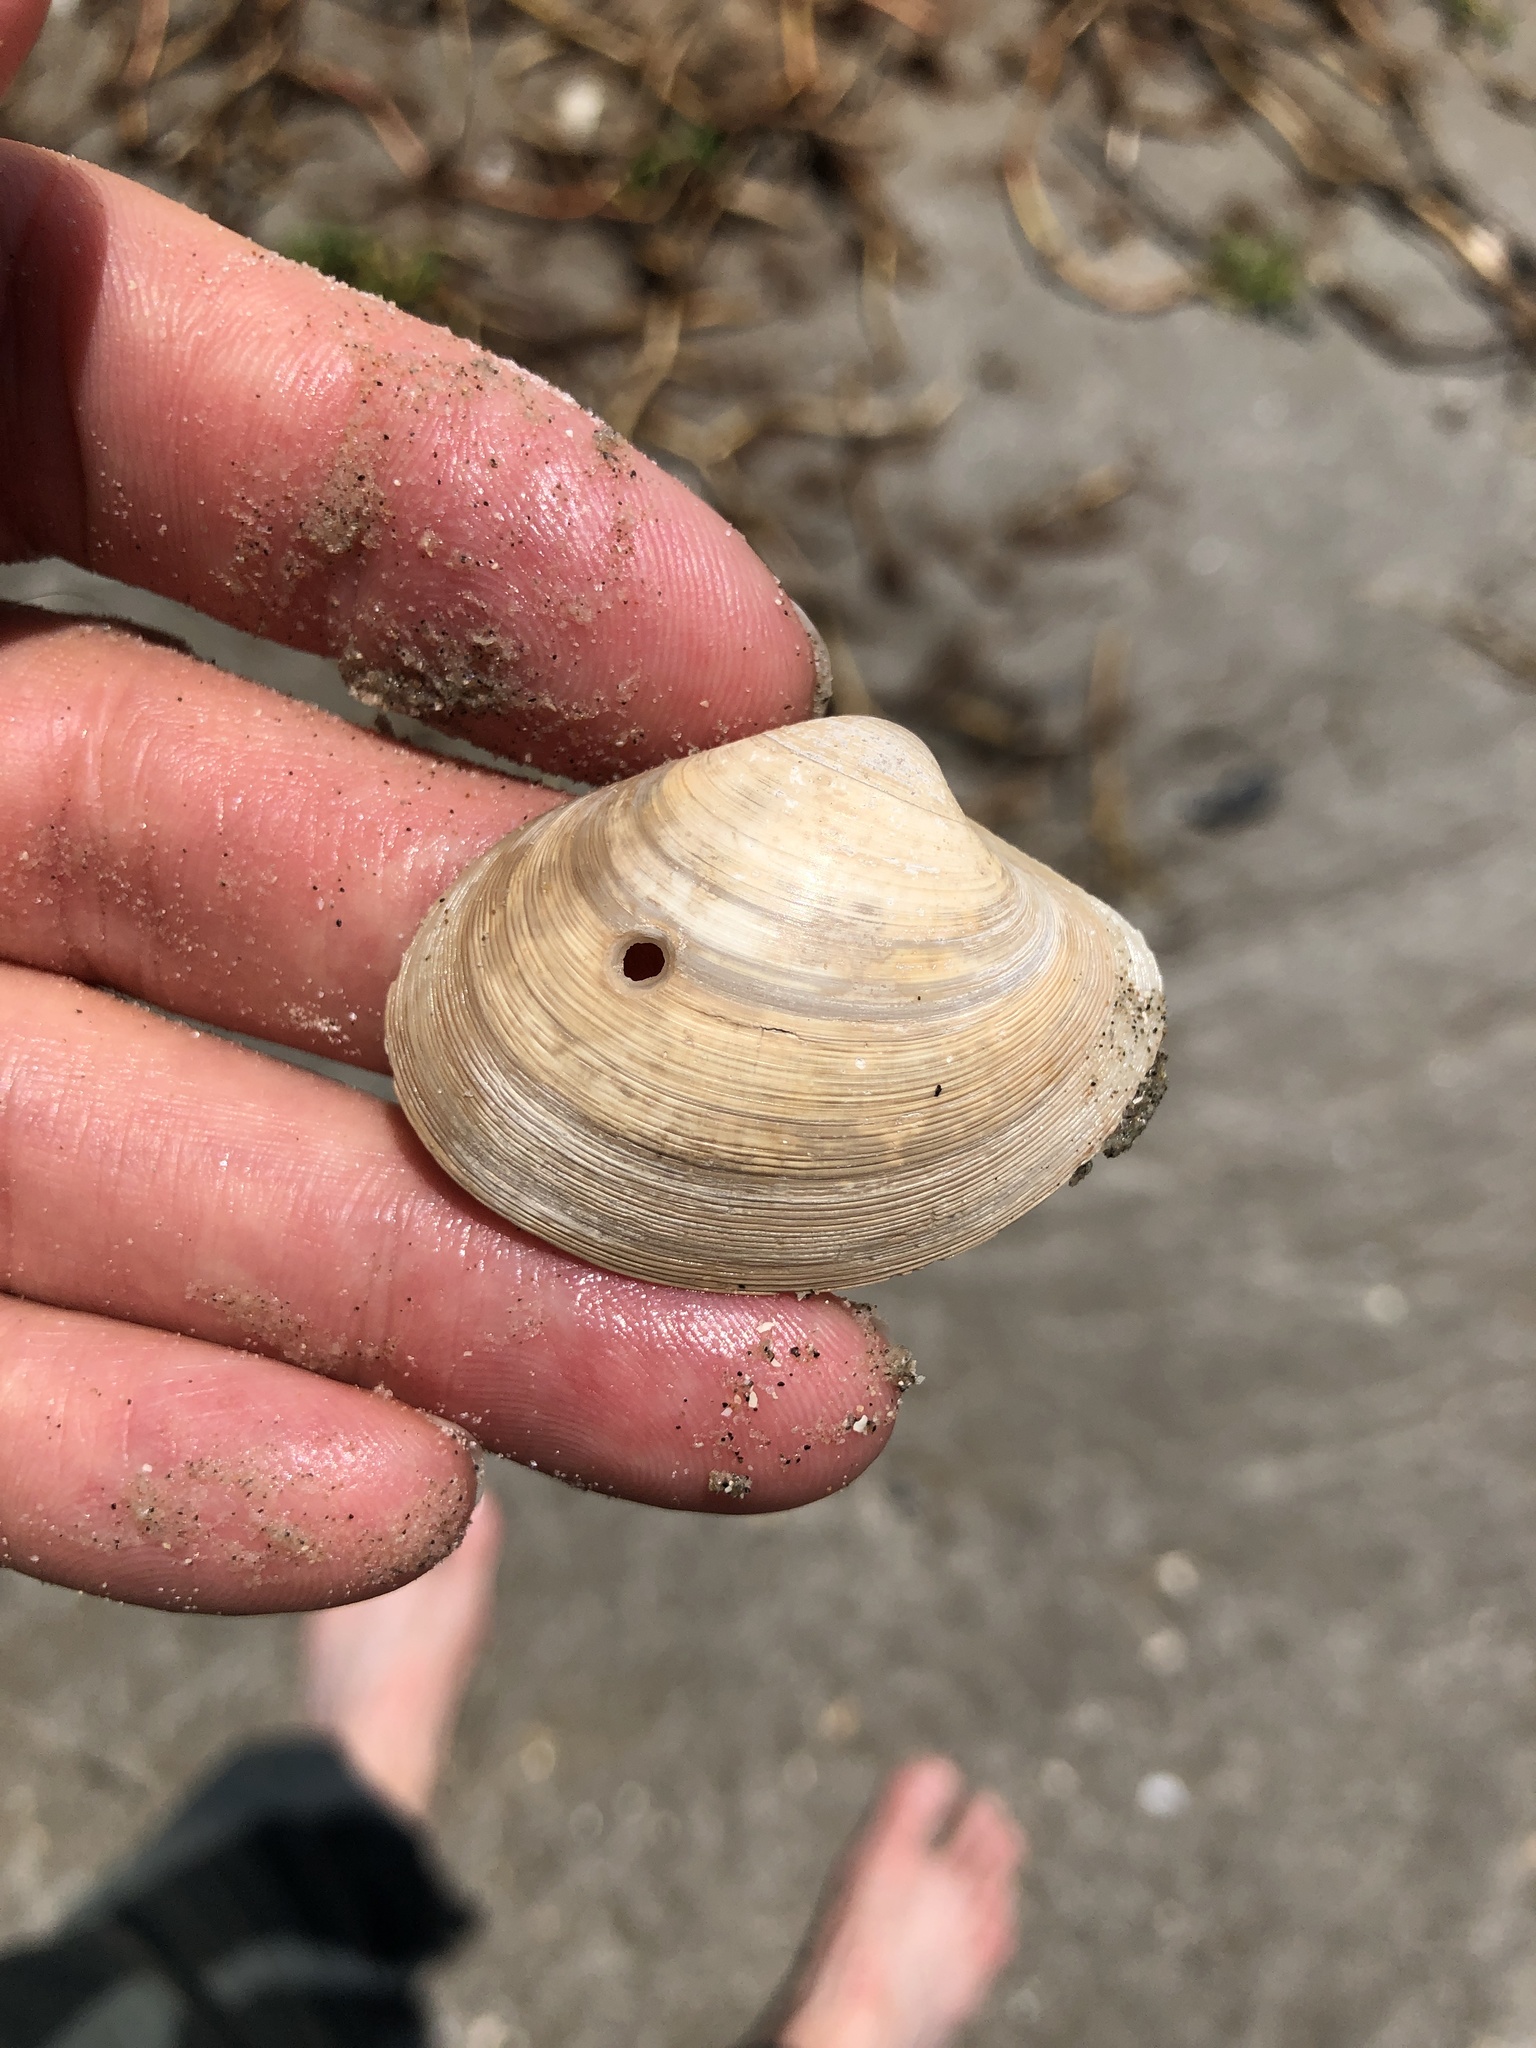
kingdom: Animalia
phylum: Mollusca
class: Bivalvia
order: Venerida
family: Veneridae
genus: Agriopoma
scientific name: Agriopoma texasianum
